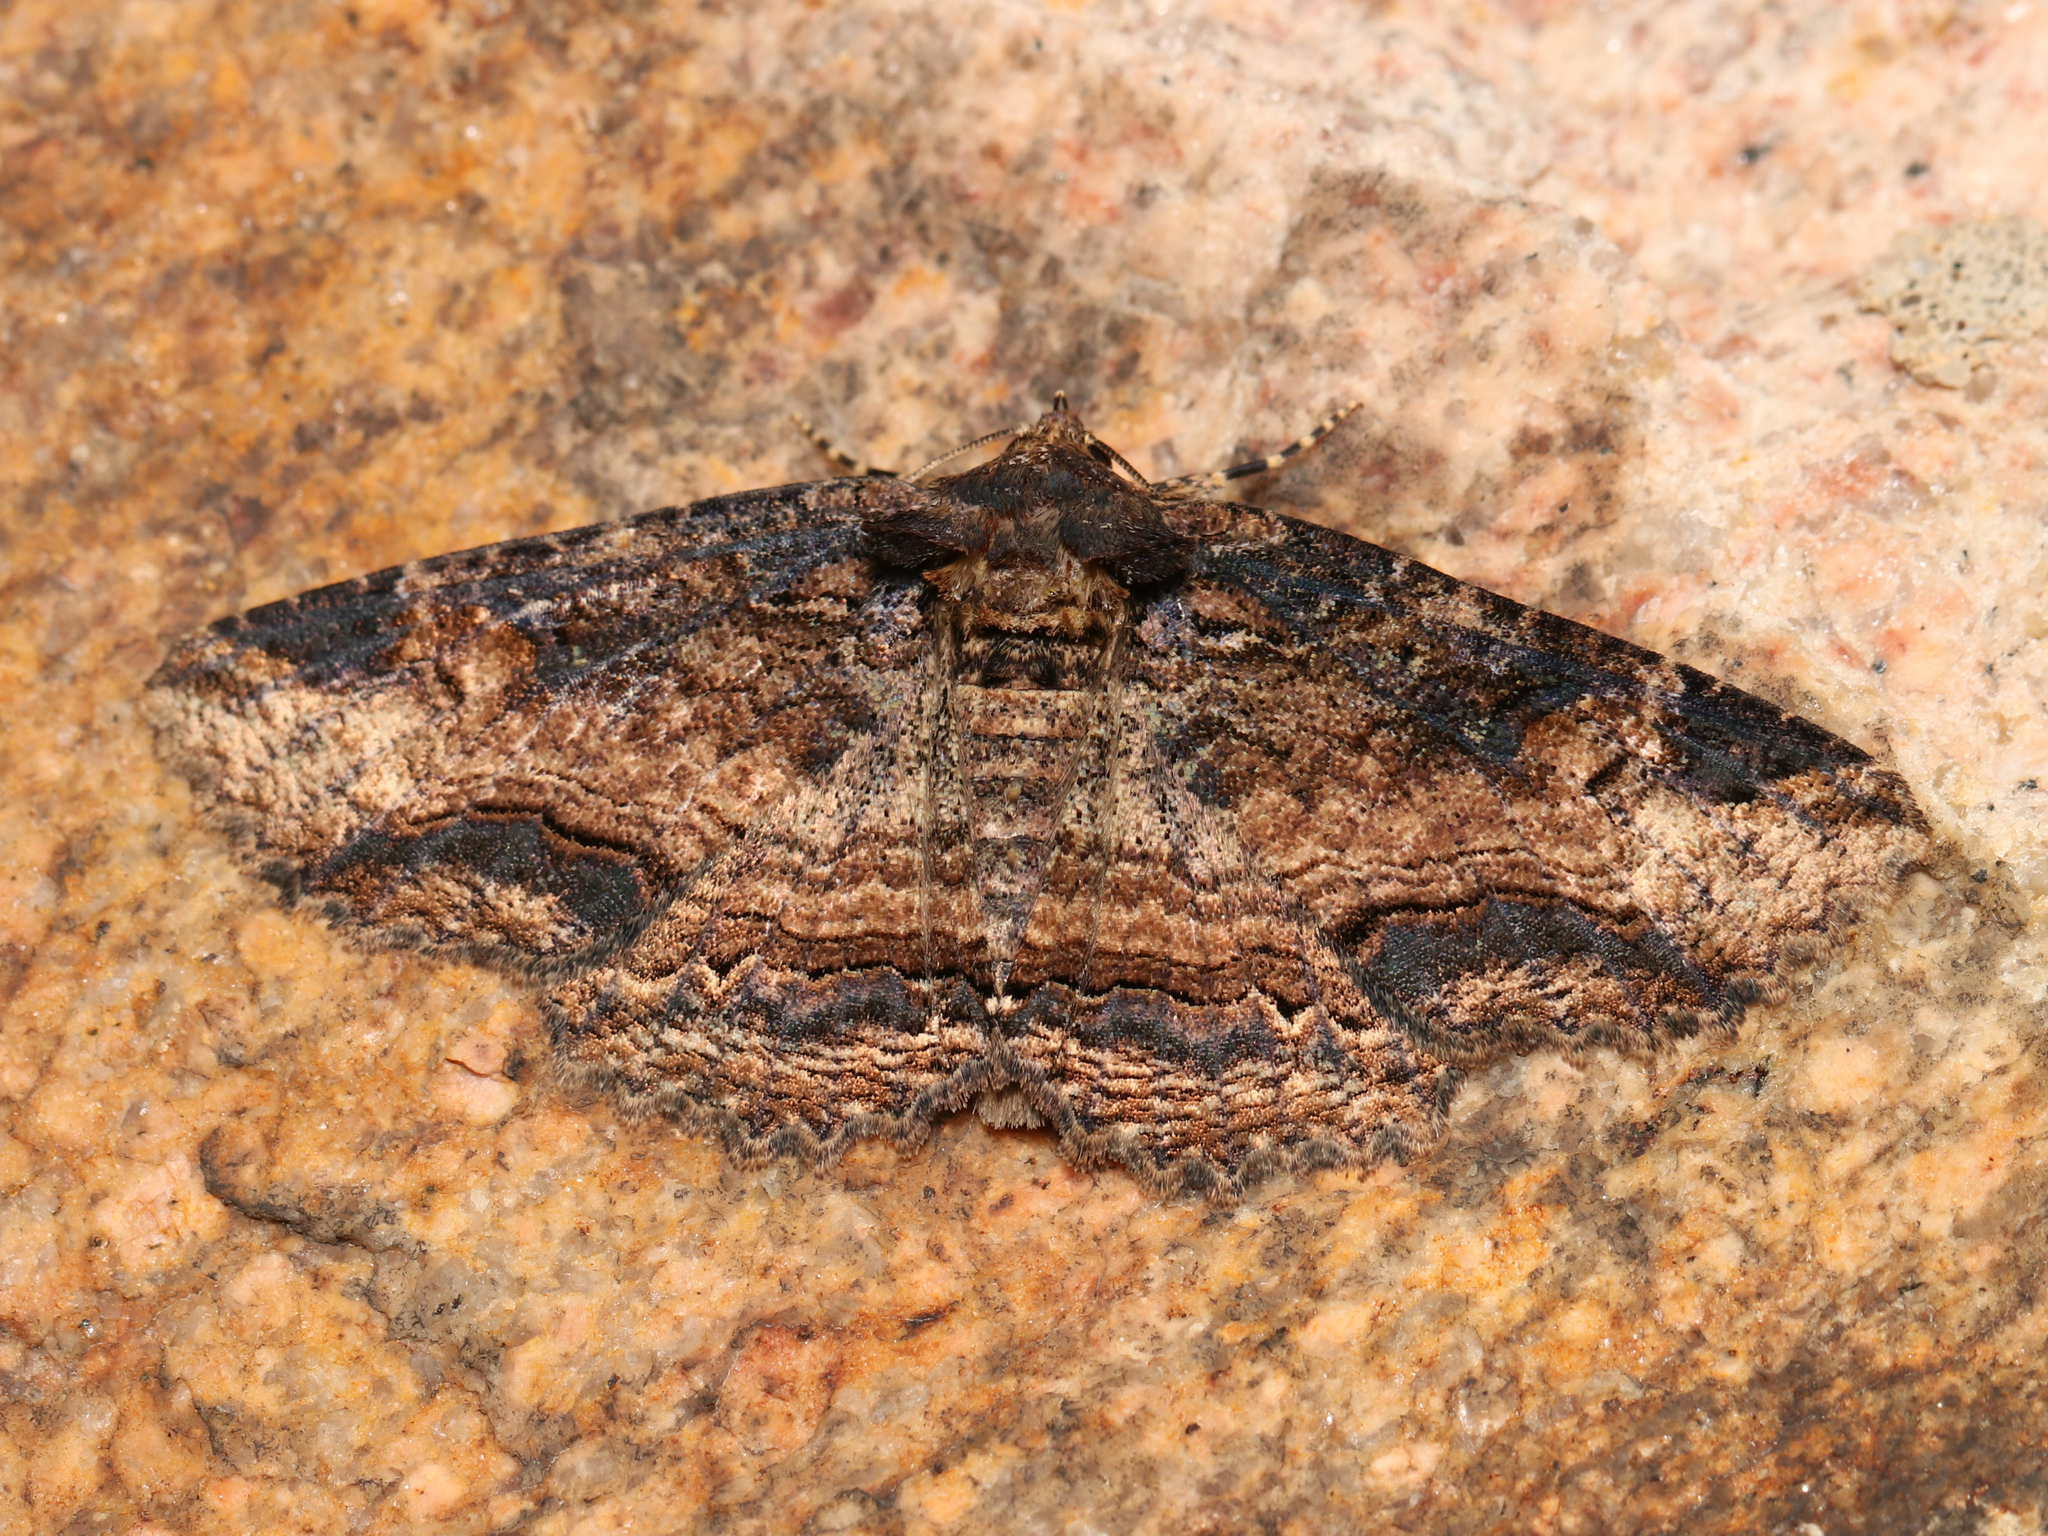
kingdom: Animalia
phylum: Arthropoda
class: Insecta
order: Lepidoptera
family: Erebidae
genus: Zale
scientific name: Zale minerea
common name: Colorful zale moth
